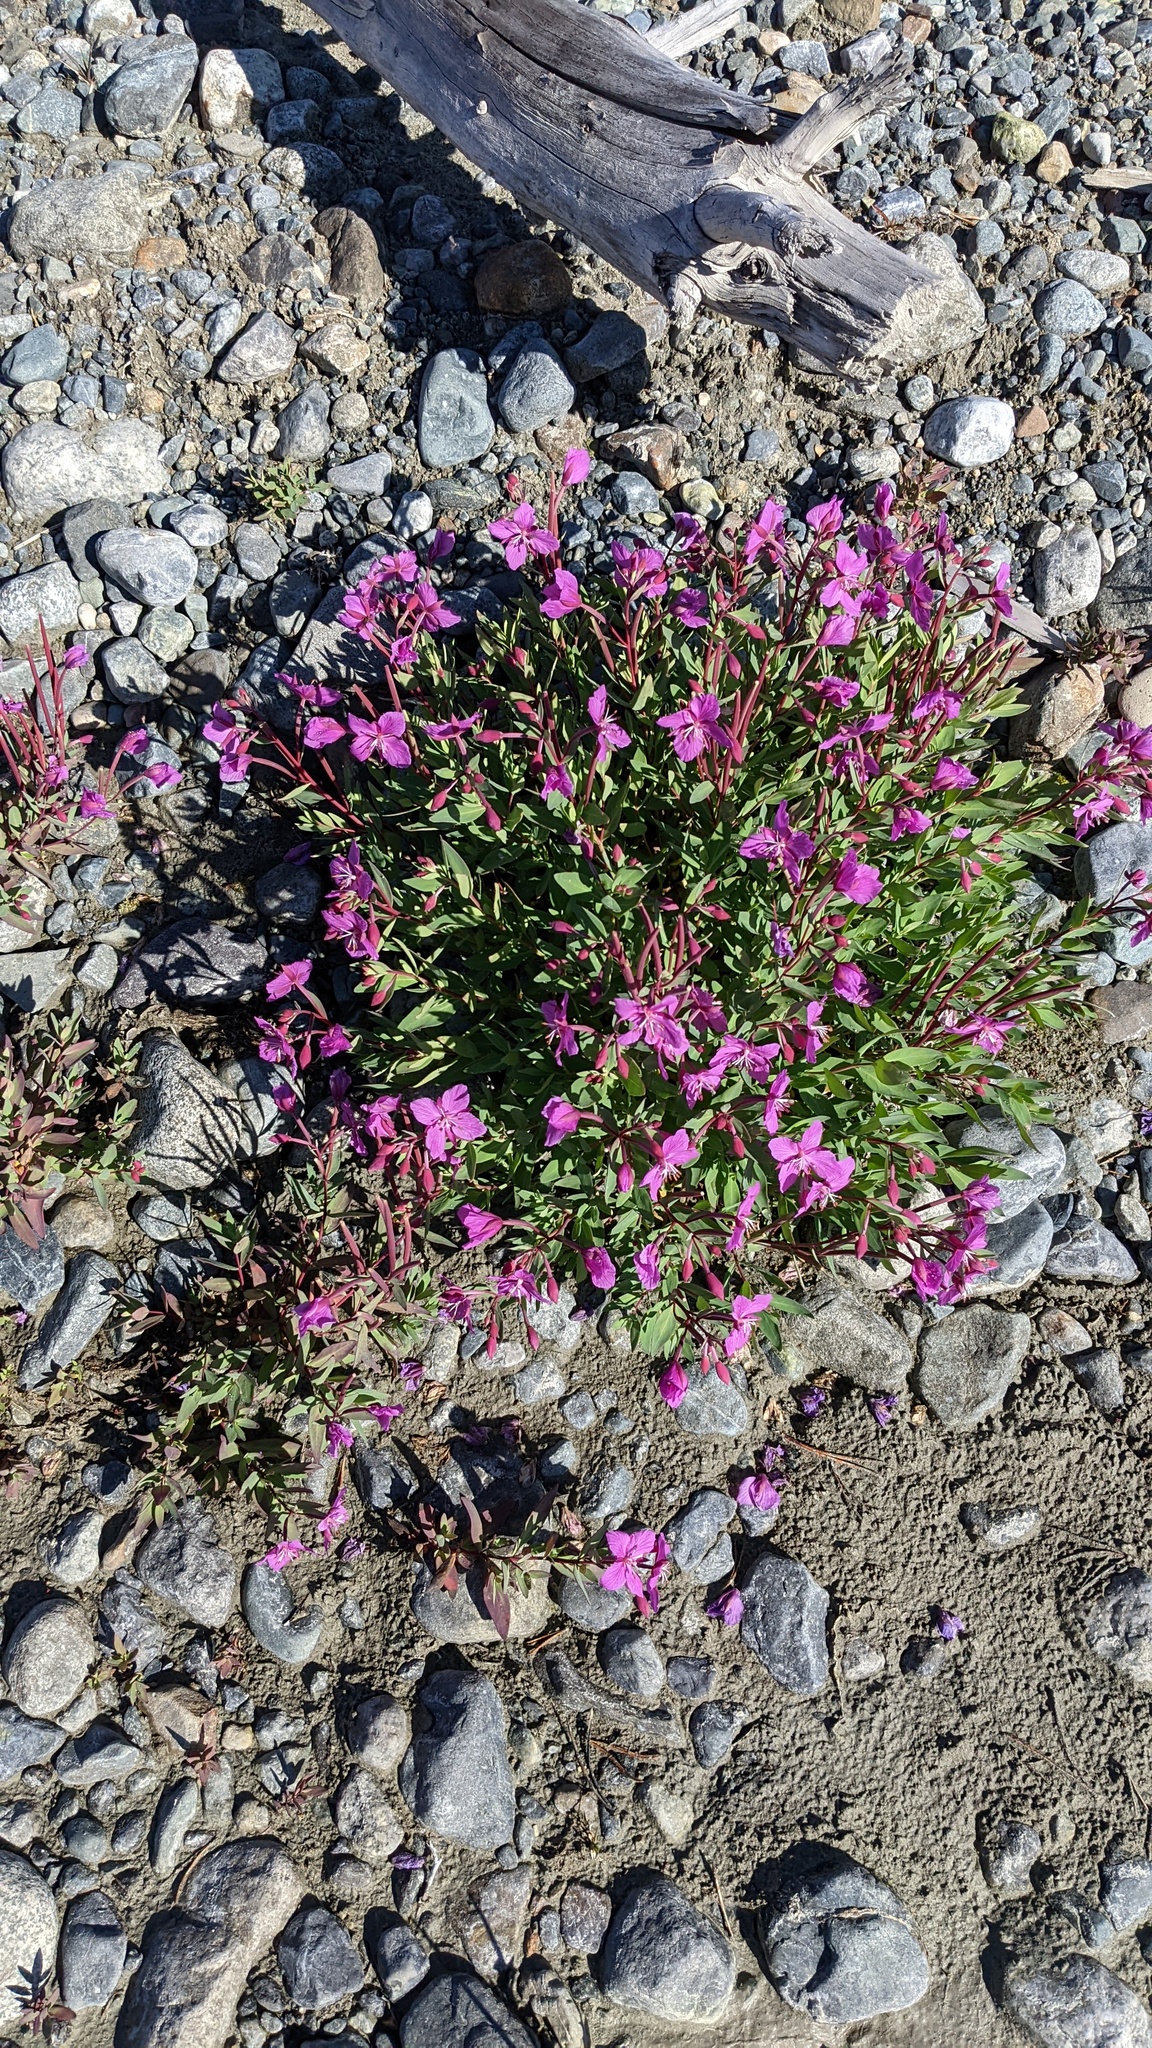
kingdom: Plantae
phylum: Tracheophyta
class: Magnoliopsida
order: Myrtales
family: Onagraceae
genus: Chamaenerion
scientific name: Chamaenerion latifolium
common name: Dwarf fireweed
